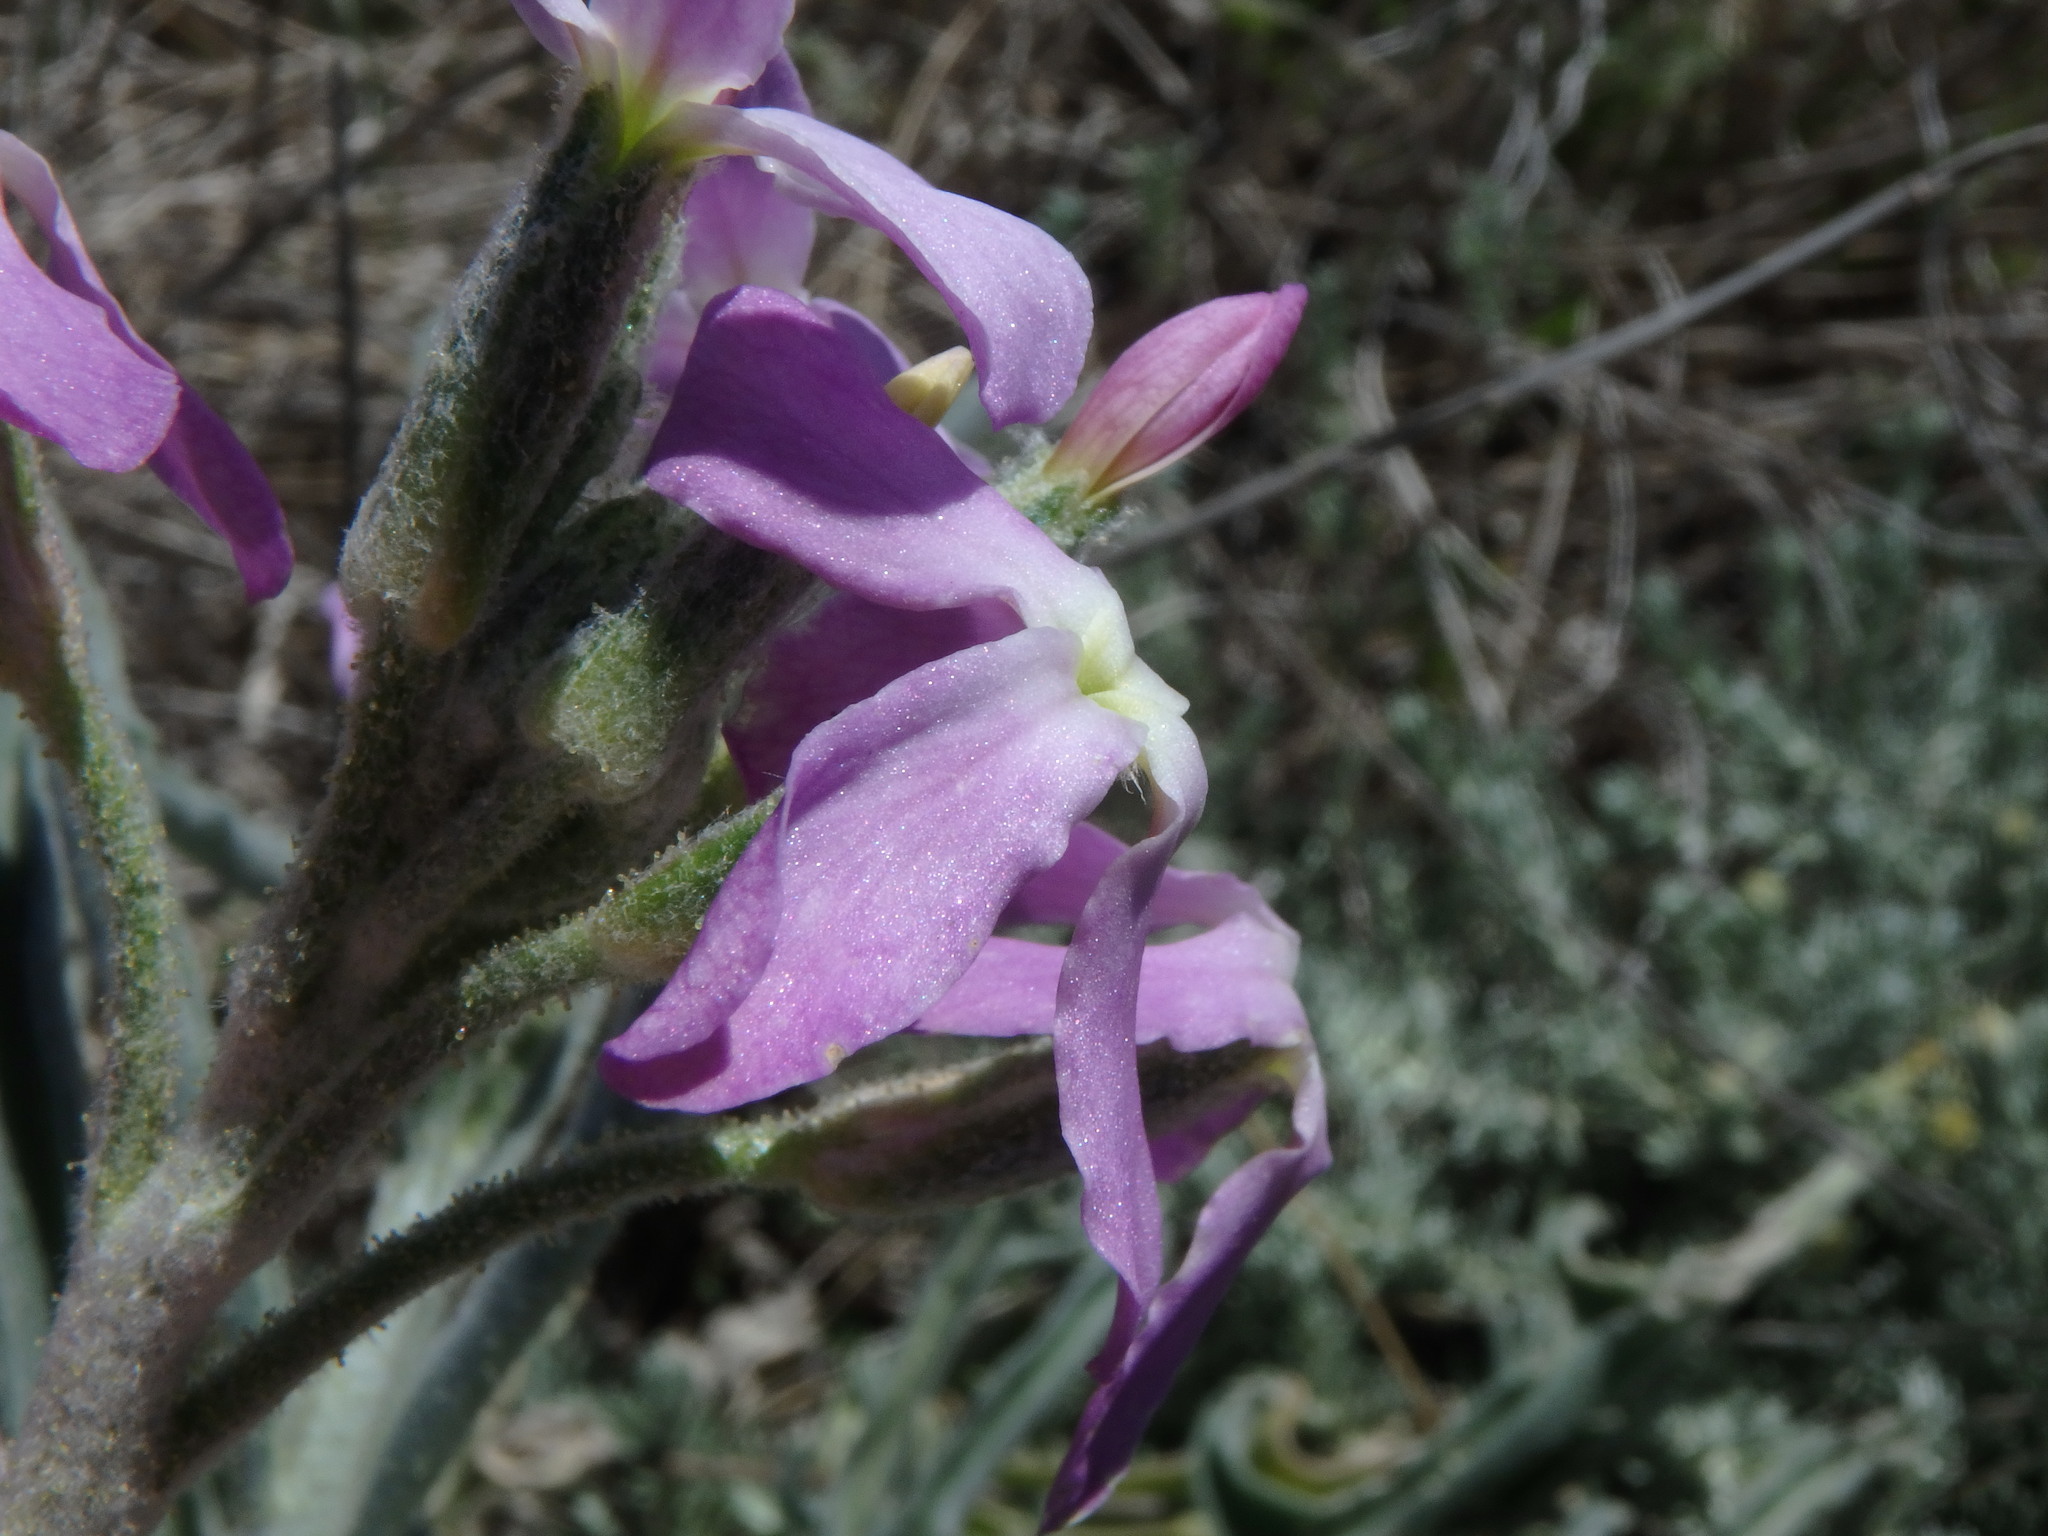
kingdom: Plantae
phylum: Tracheophyta
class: Magnoliopsida
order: Brassicales
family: Brassicaceae
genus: Matthiola
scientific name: Matthiola sinuata
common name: Sea stock
